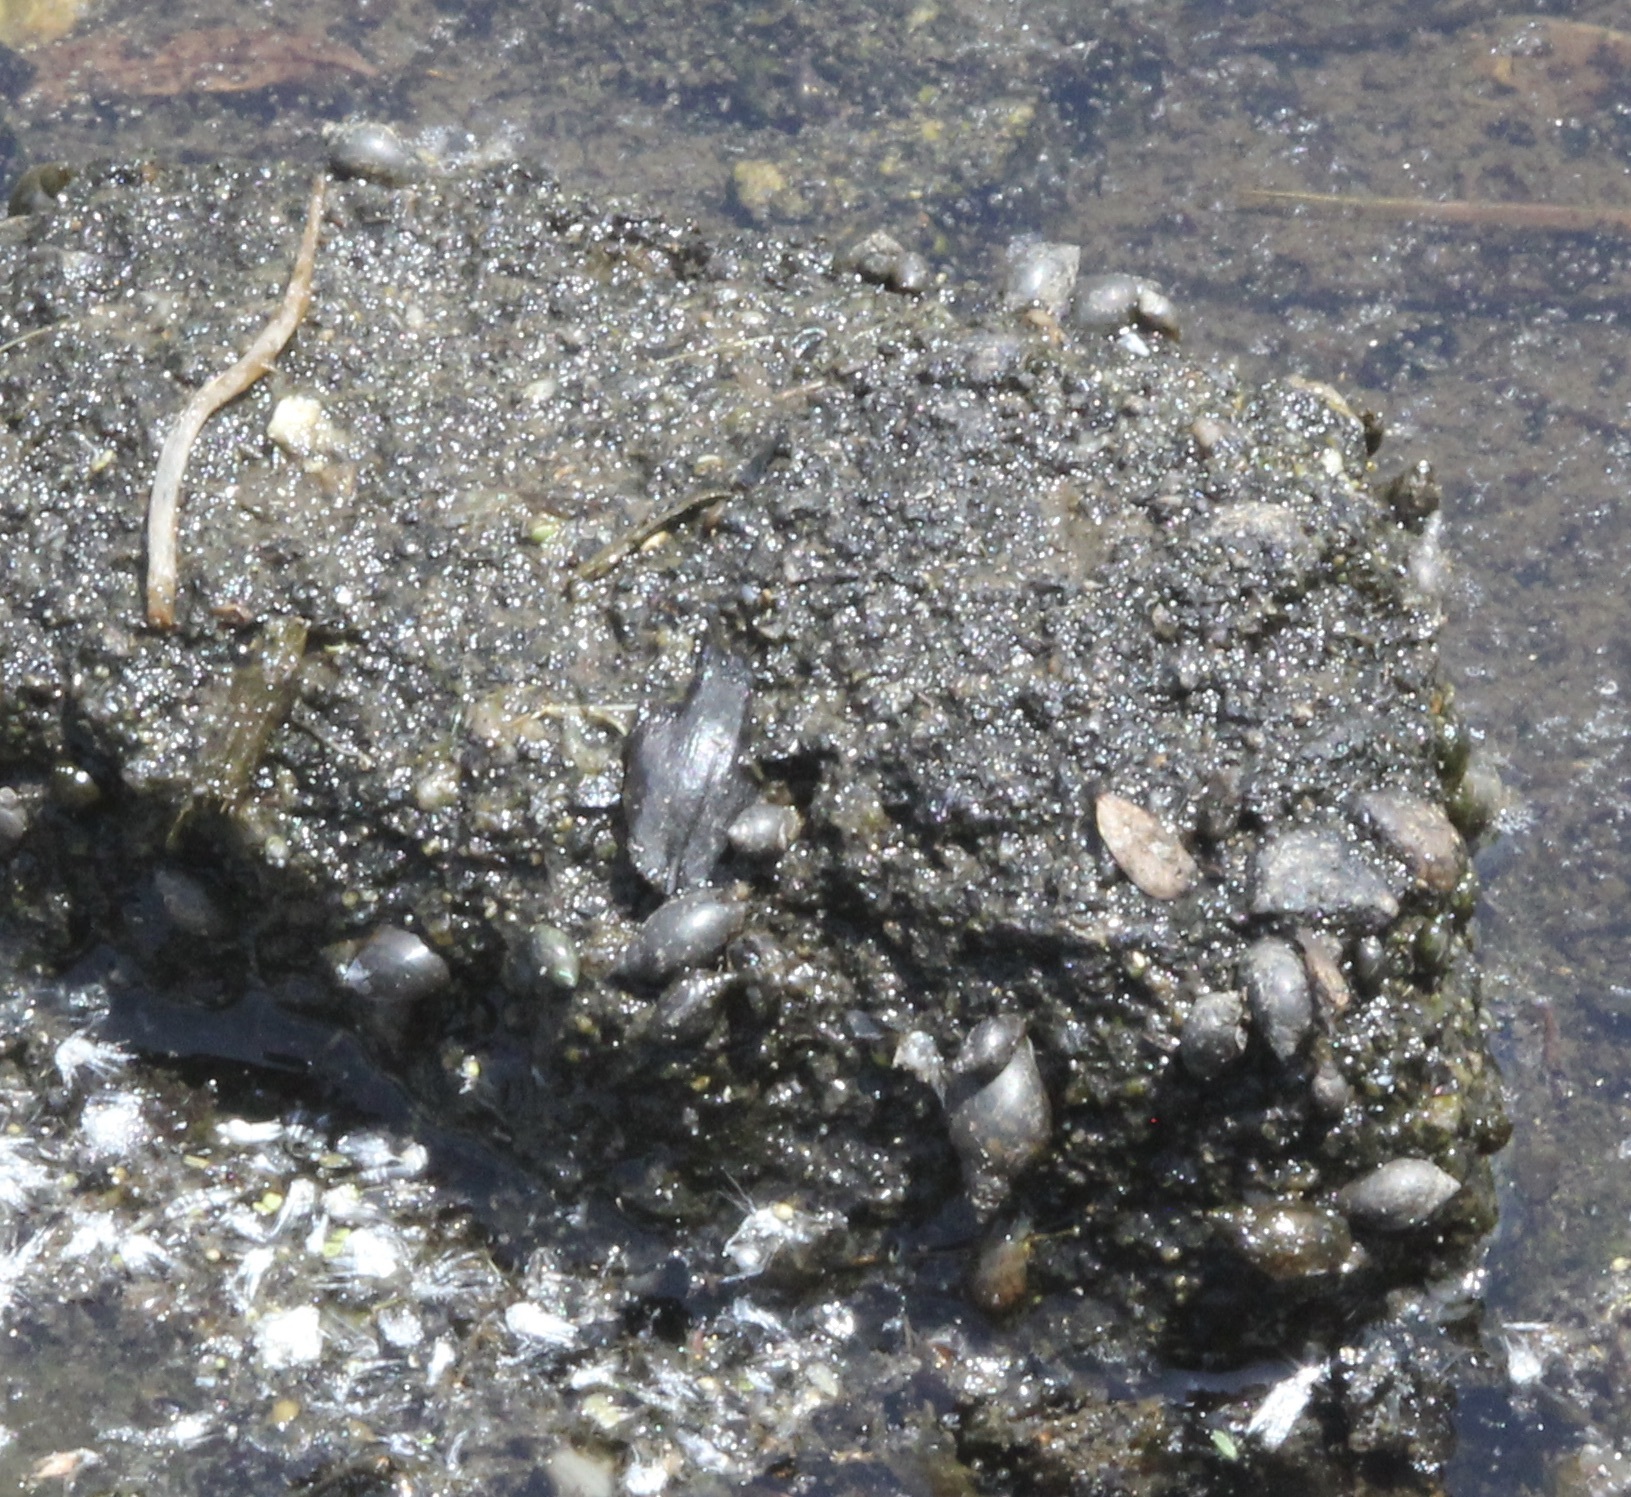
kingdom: Animalia
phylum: Mollusca
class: Gastropoda
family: Physidae
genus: Physella
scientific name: Physella
